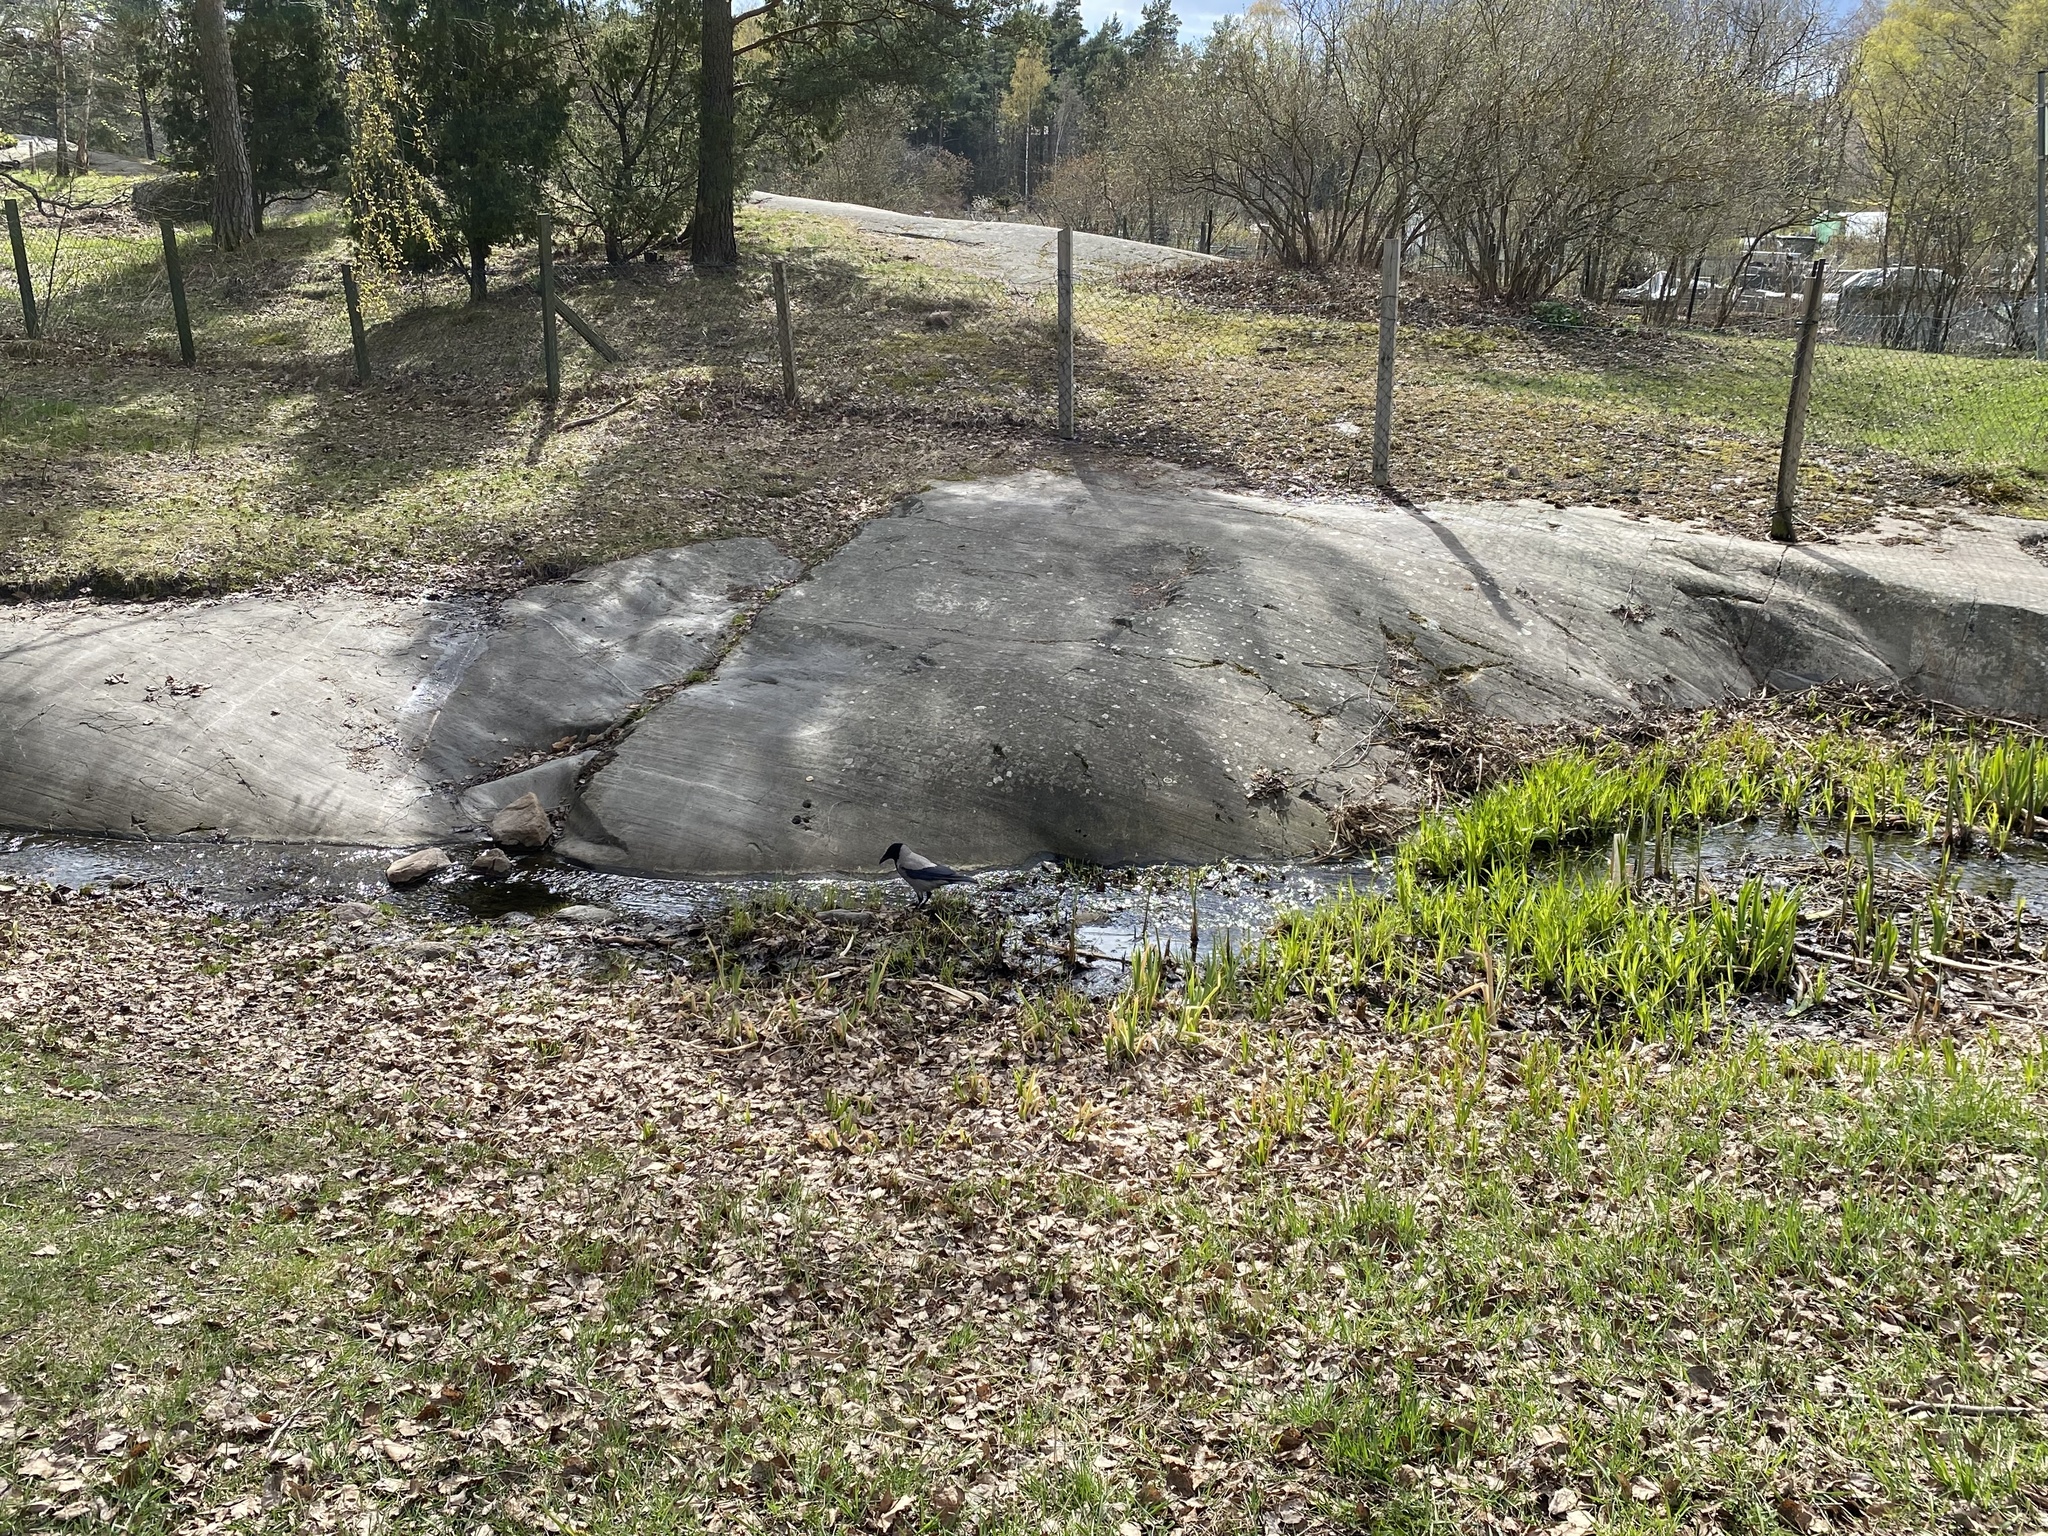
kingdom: Animalia
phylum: Chordata
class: Aves
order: Passeriformes
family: Corvidae
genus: Corvus
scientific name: Corvus cornix
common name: Hooded crow
